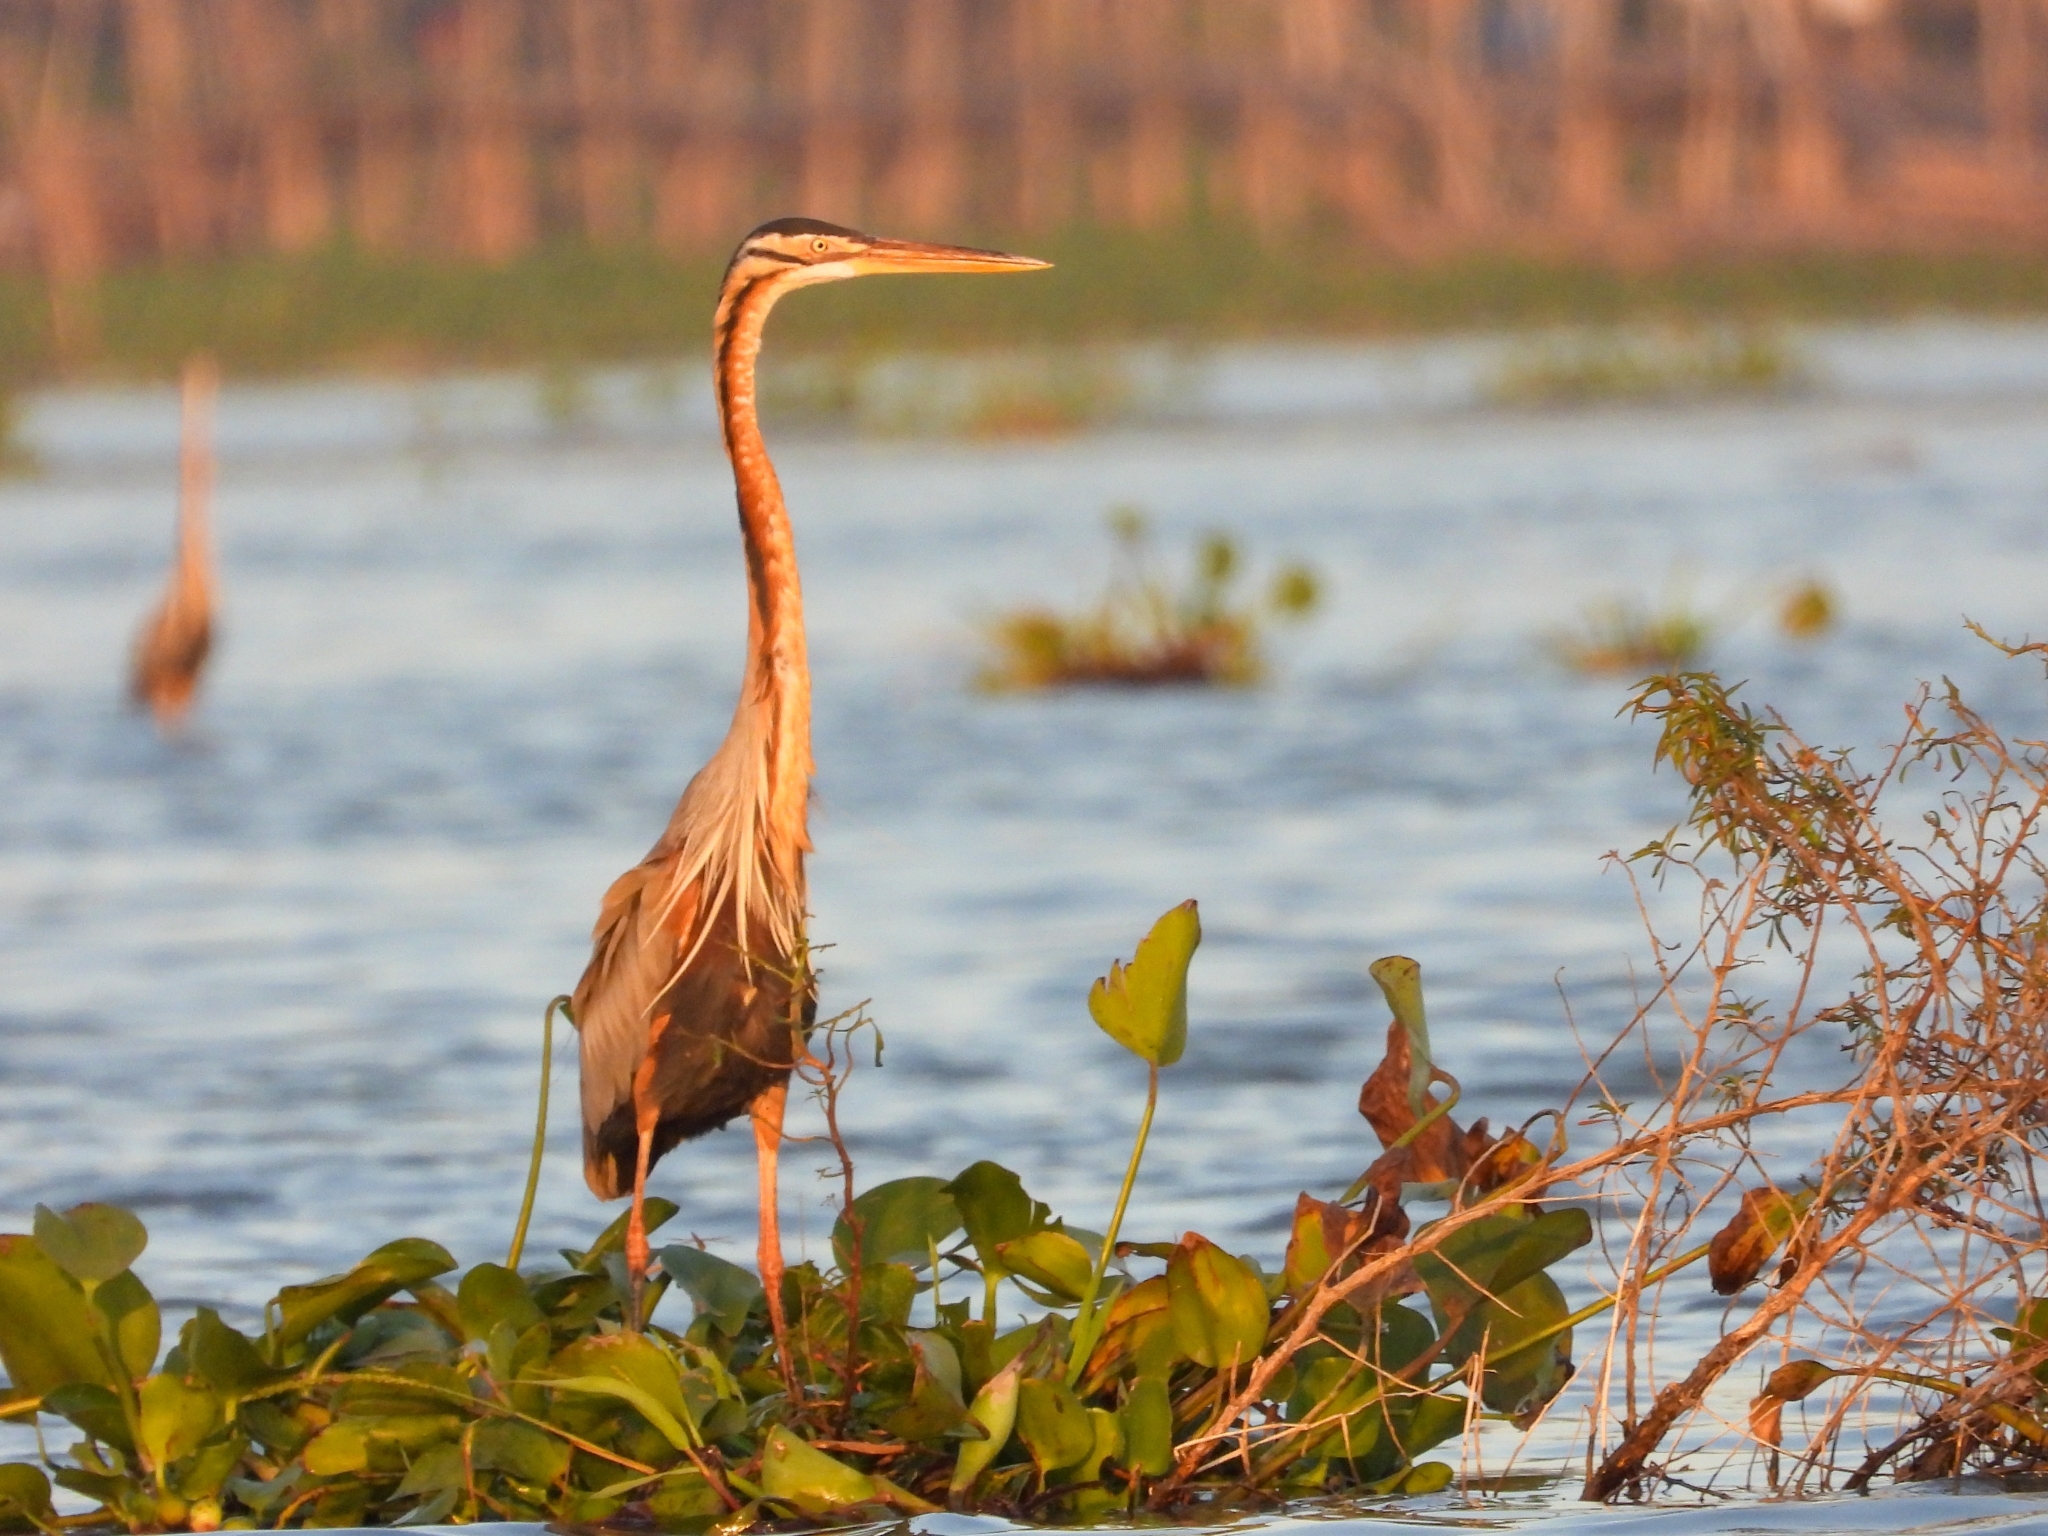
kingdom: Animalia
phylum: Chordata
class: Aves
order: Pelecaniformes
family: Ardeidae
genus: Ardea
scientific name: Ardea purpurea
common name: Purple heron
